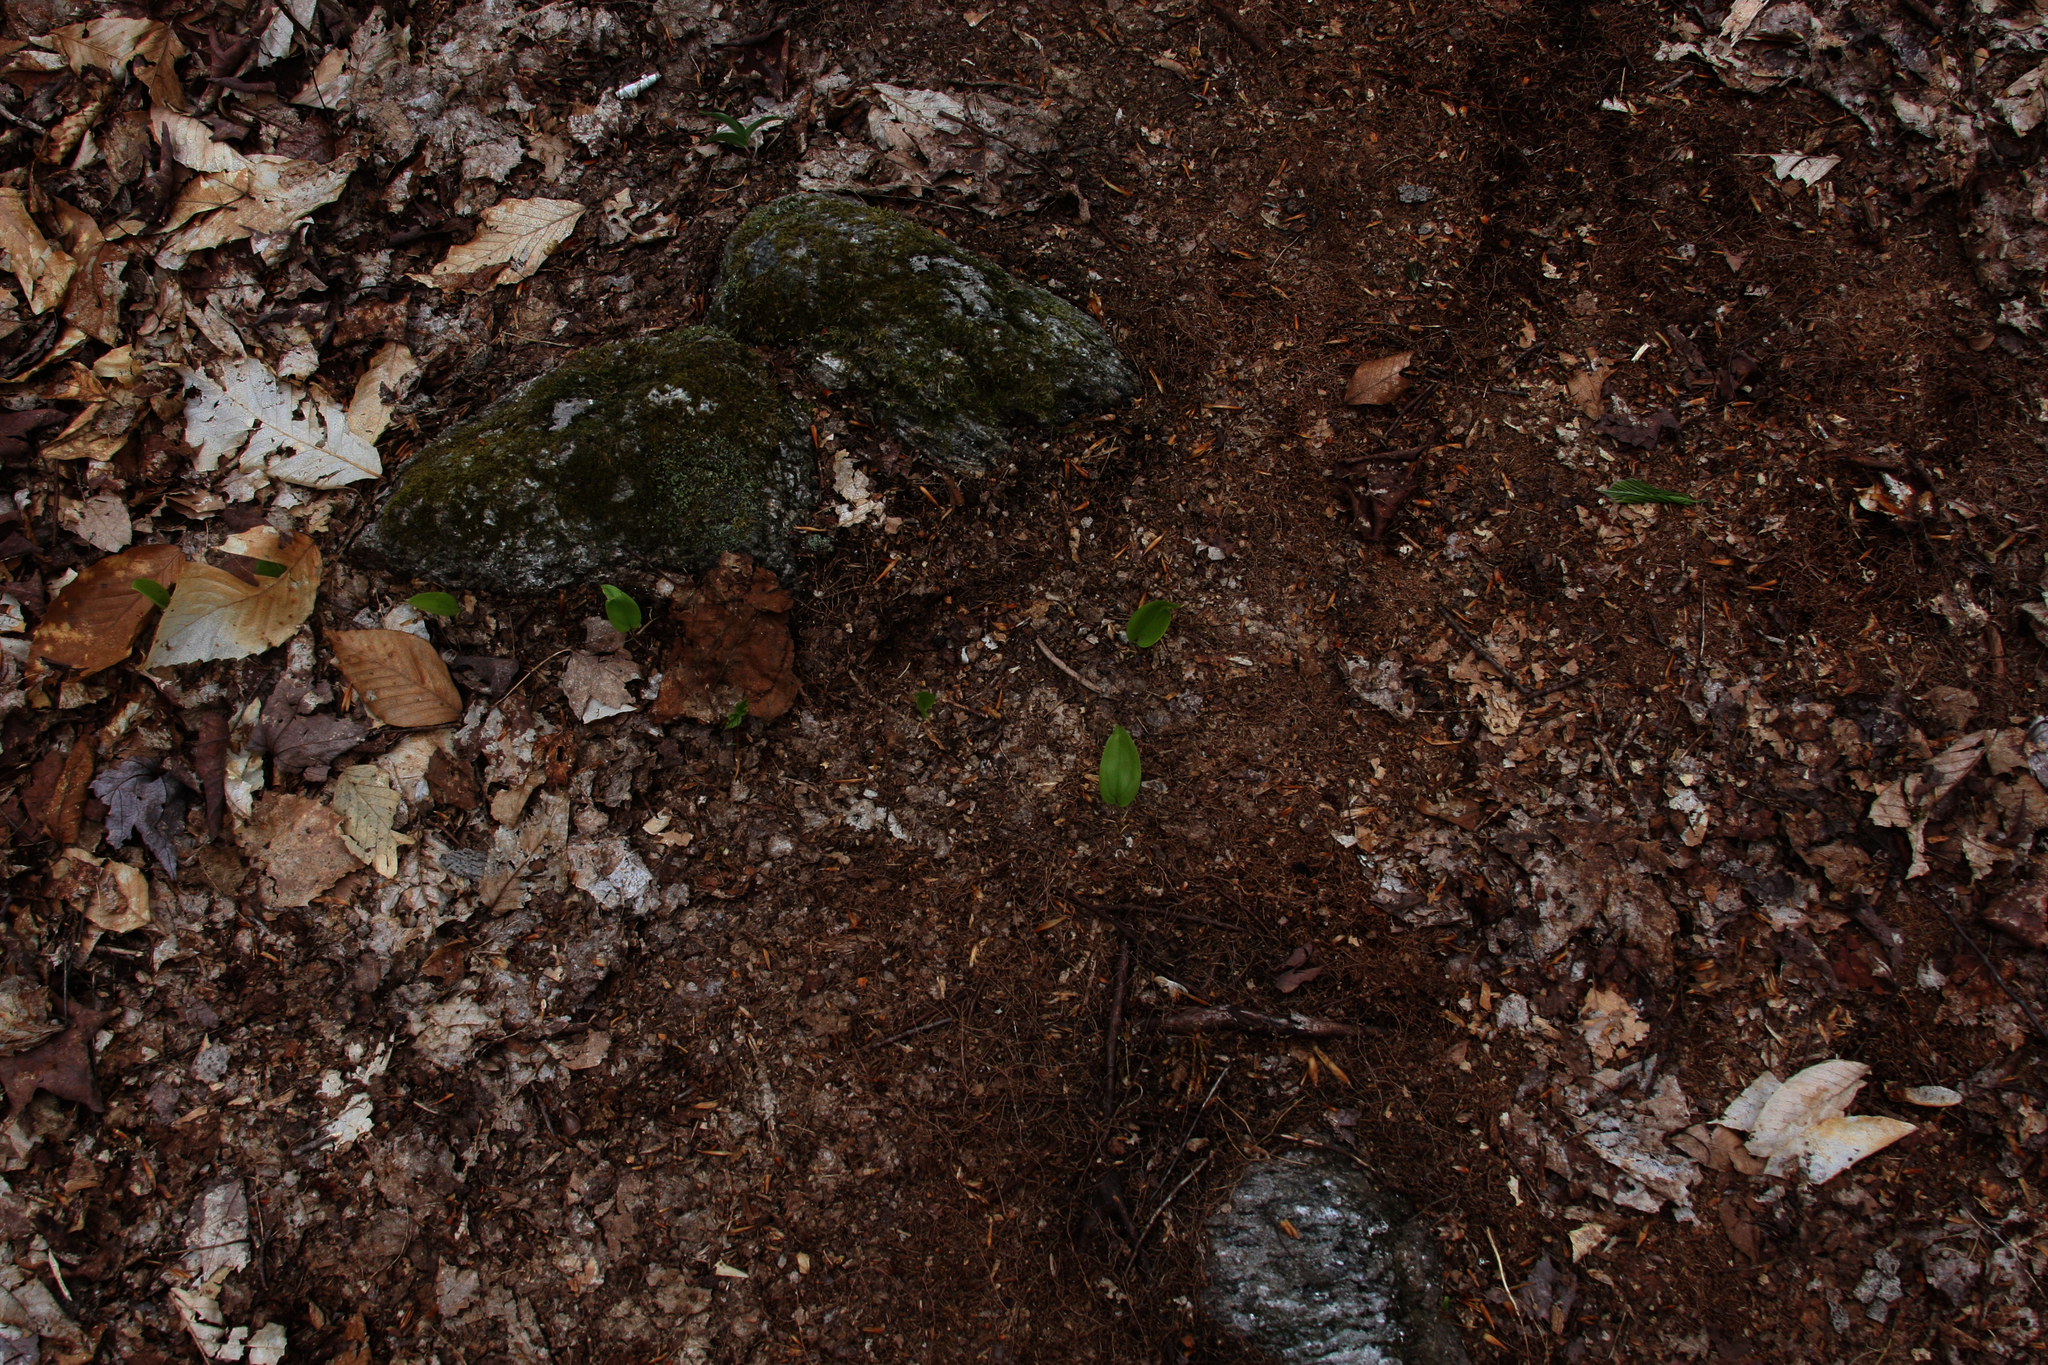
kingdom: Plantae
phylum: Tracheophyta
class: Liliopsida
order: Asparagales
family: Asparagaceae
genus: Maianthemum
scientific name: Maianthemum canadense
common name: False lily-of-the-valley
